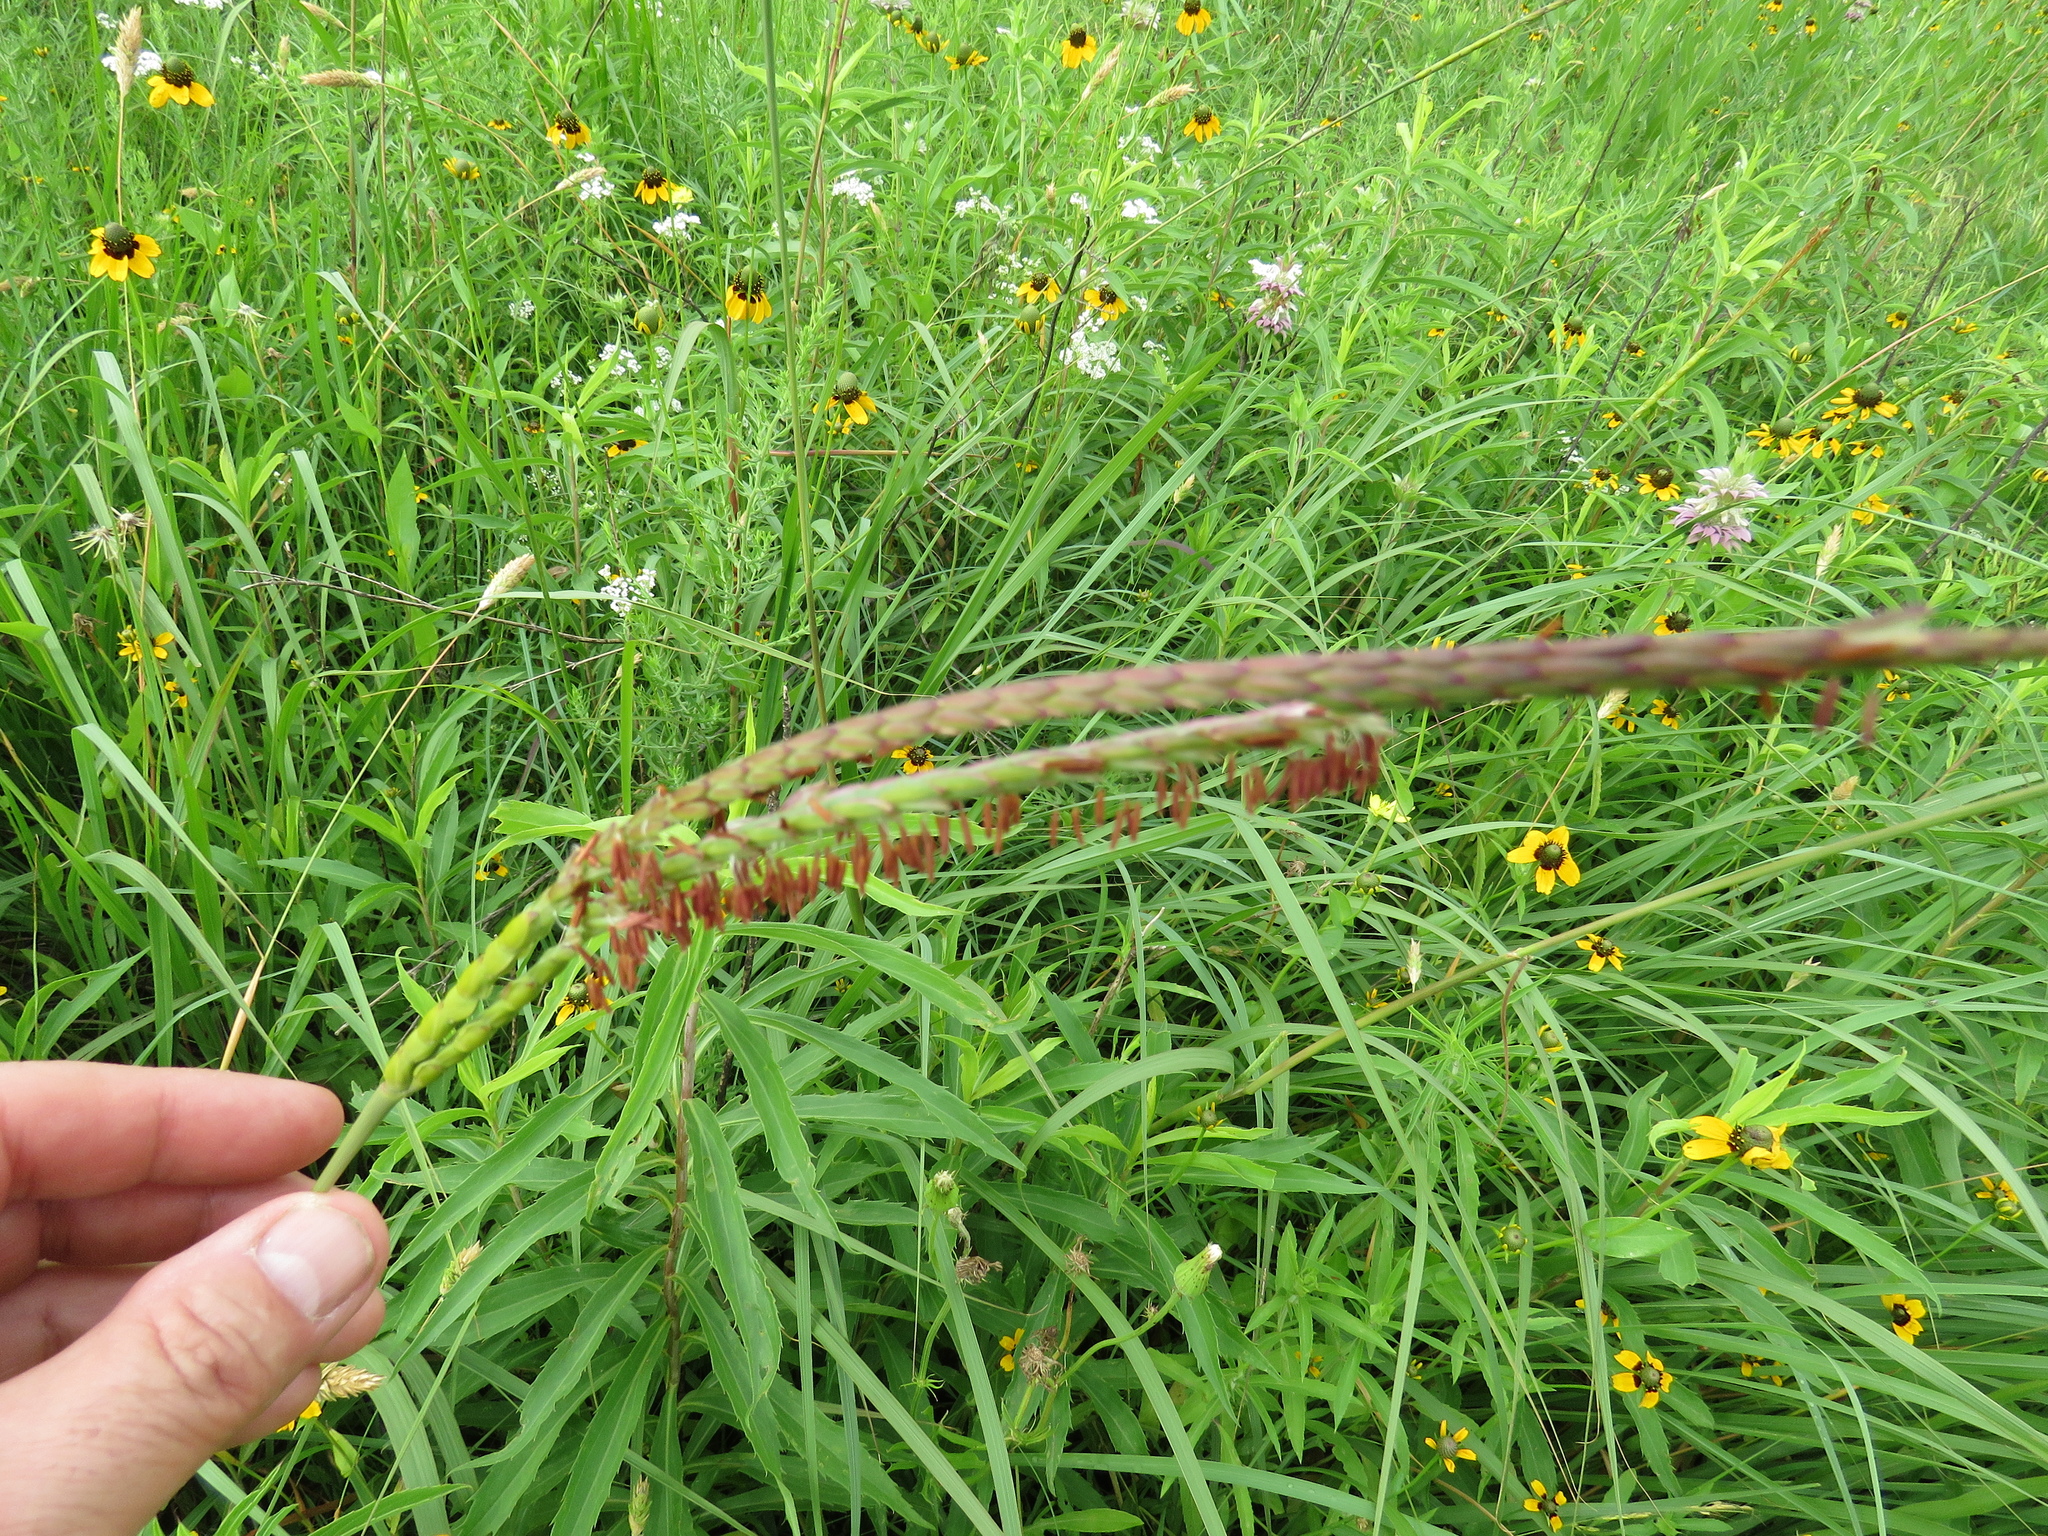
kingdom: Plantae
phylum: Tracheophyta
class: Liliopsida
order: Poales
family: Poaceae
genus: Tripsacum
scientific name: Tripsacum dactyloides
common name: Buffalo-grass
